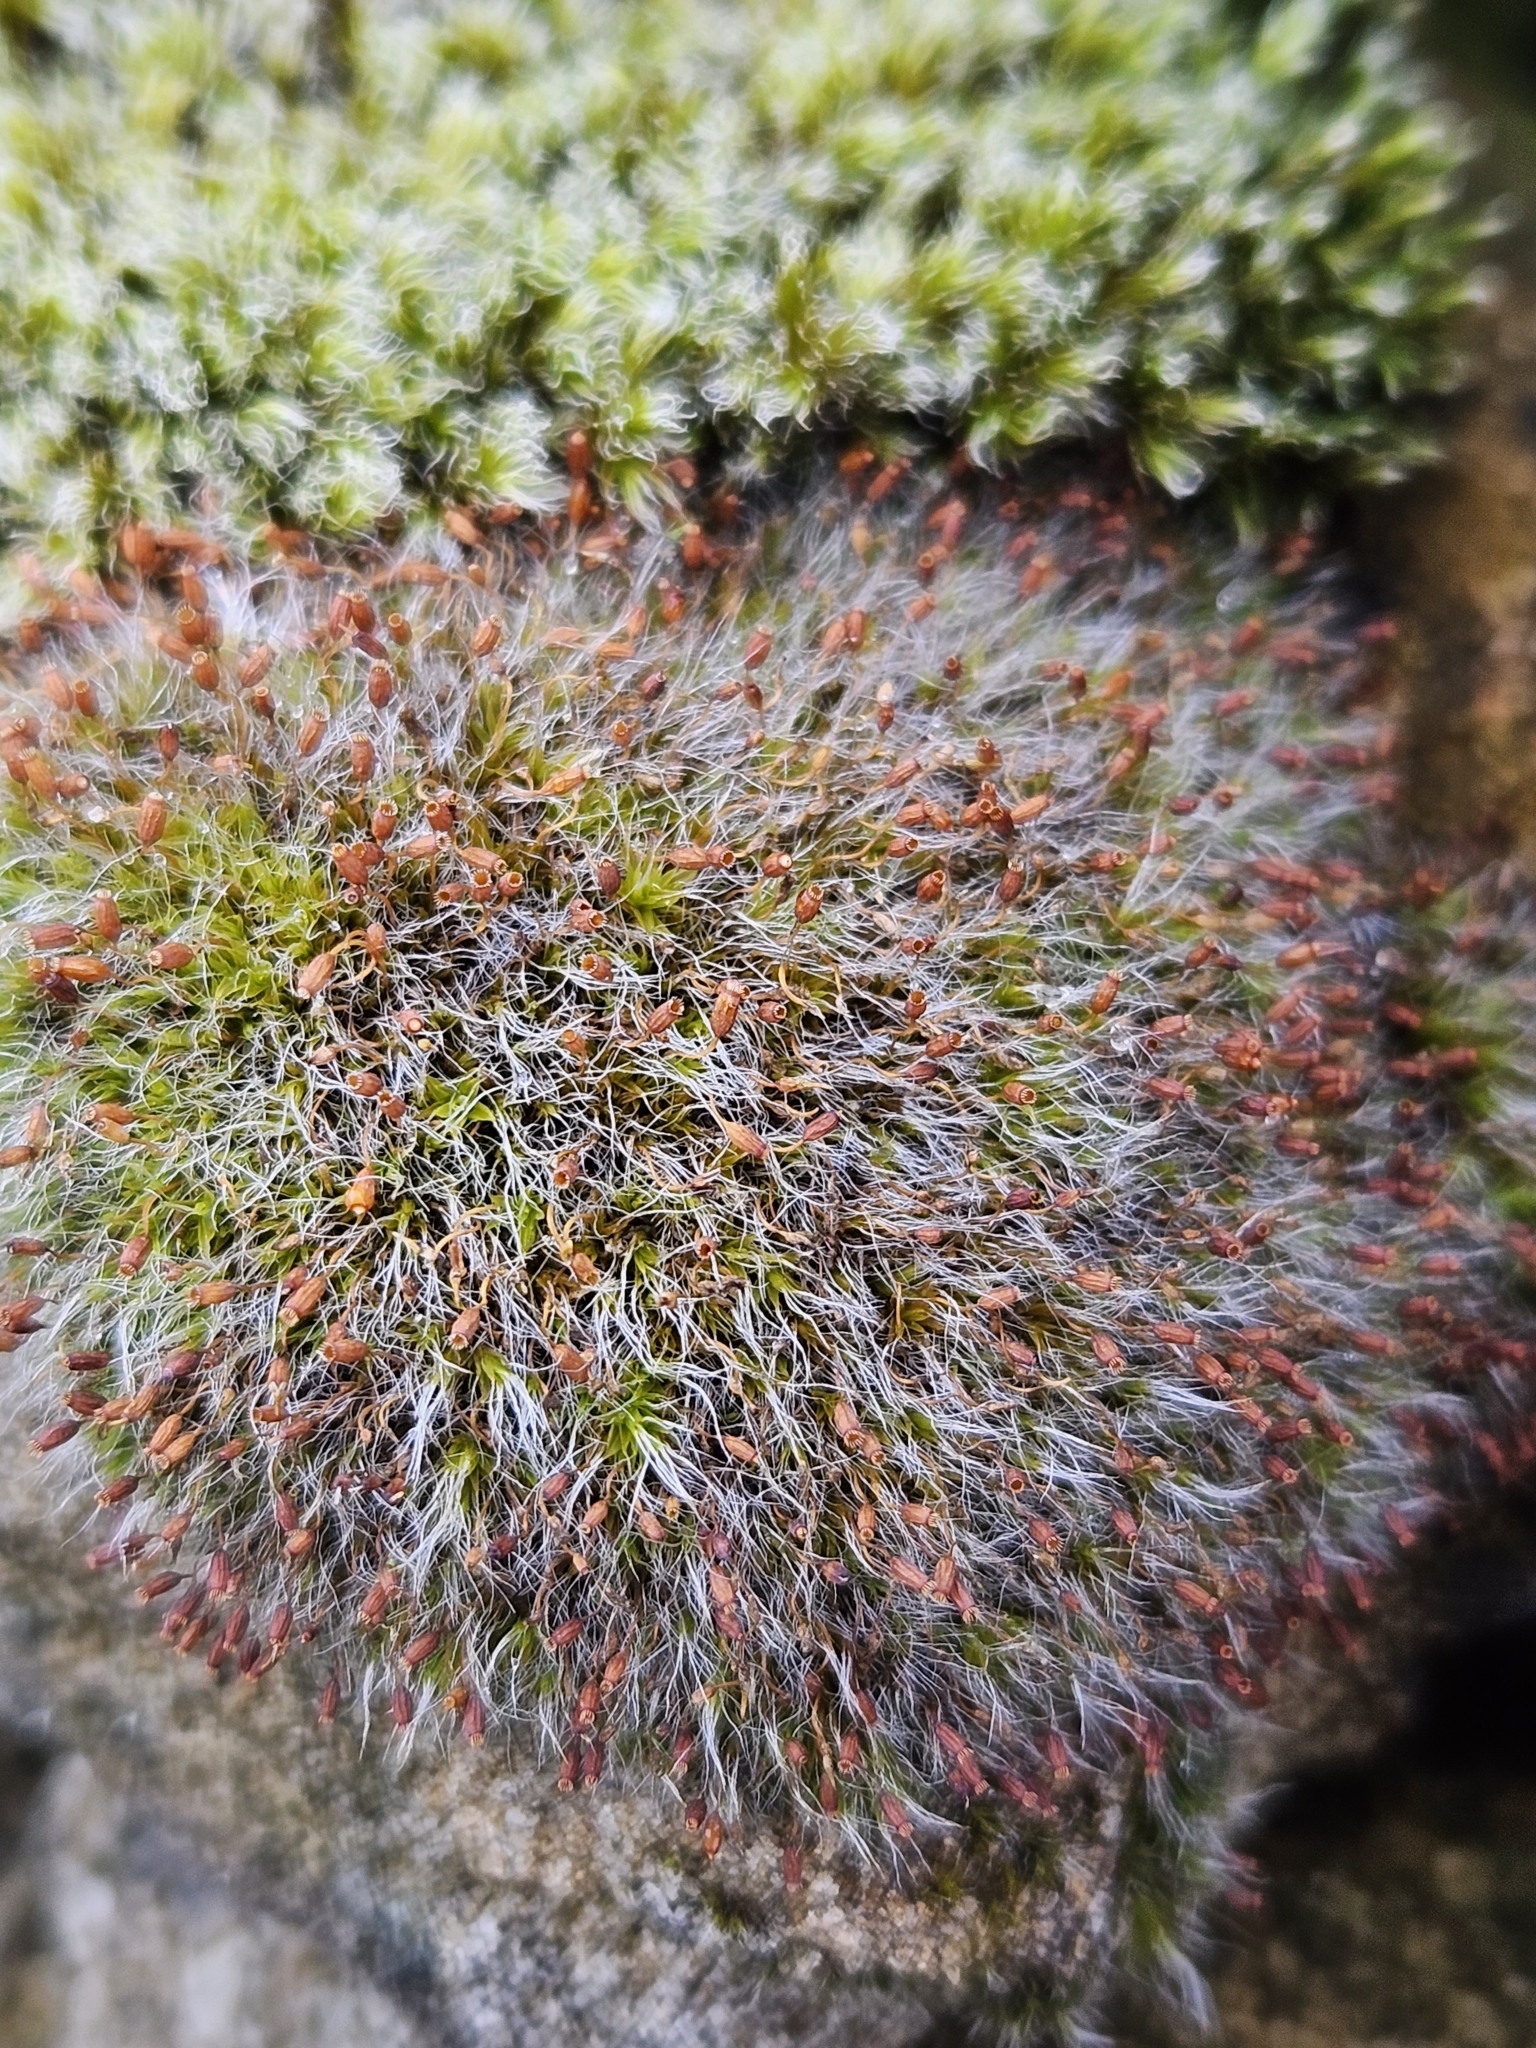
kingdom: Plantae
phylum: Bryophyta
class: Bryopsida
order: Grimmiales
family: Grimmiaceae
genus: Grimmia
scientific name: Grimmia pulvinata
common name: Grey-cushioned grimmia
